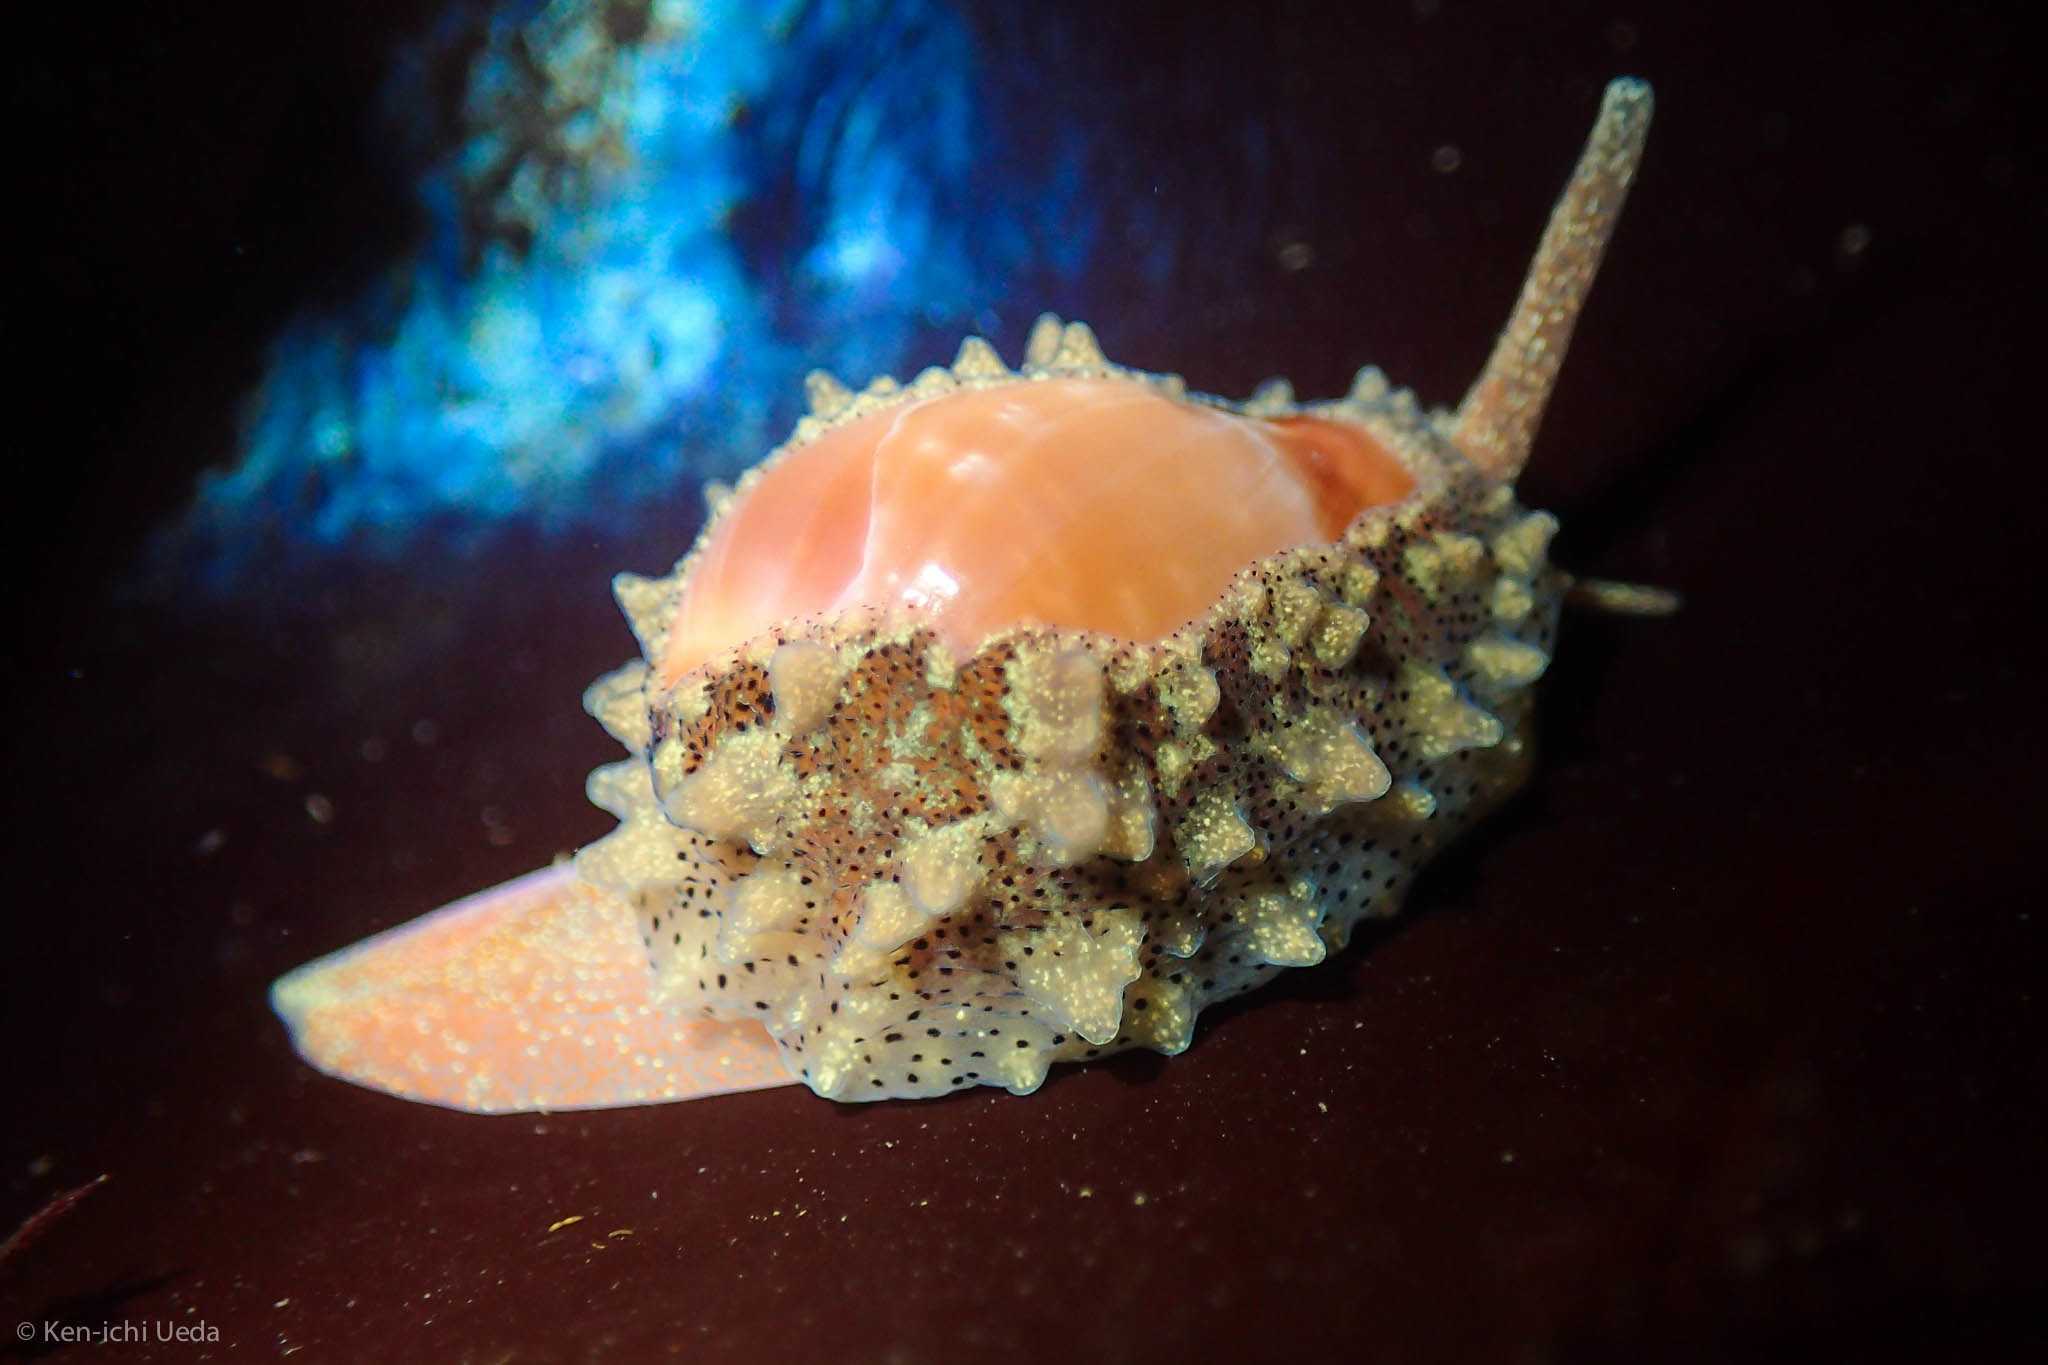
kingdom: Animalia
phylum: Mollusca
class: Gastropoda
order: Littorinimorpha
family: Eratoidae
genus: Hespererato
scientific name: Hespererato vitellina
